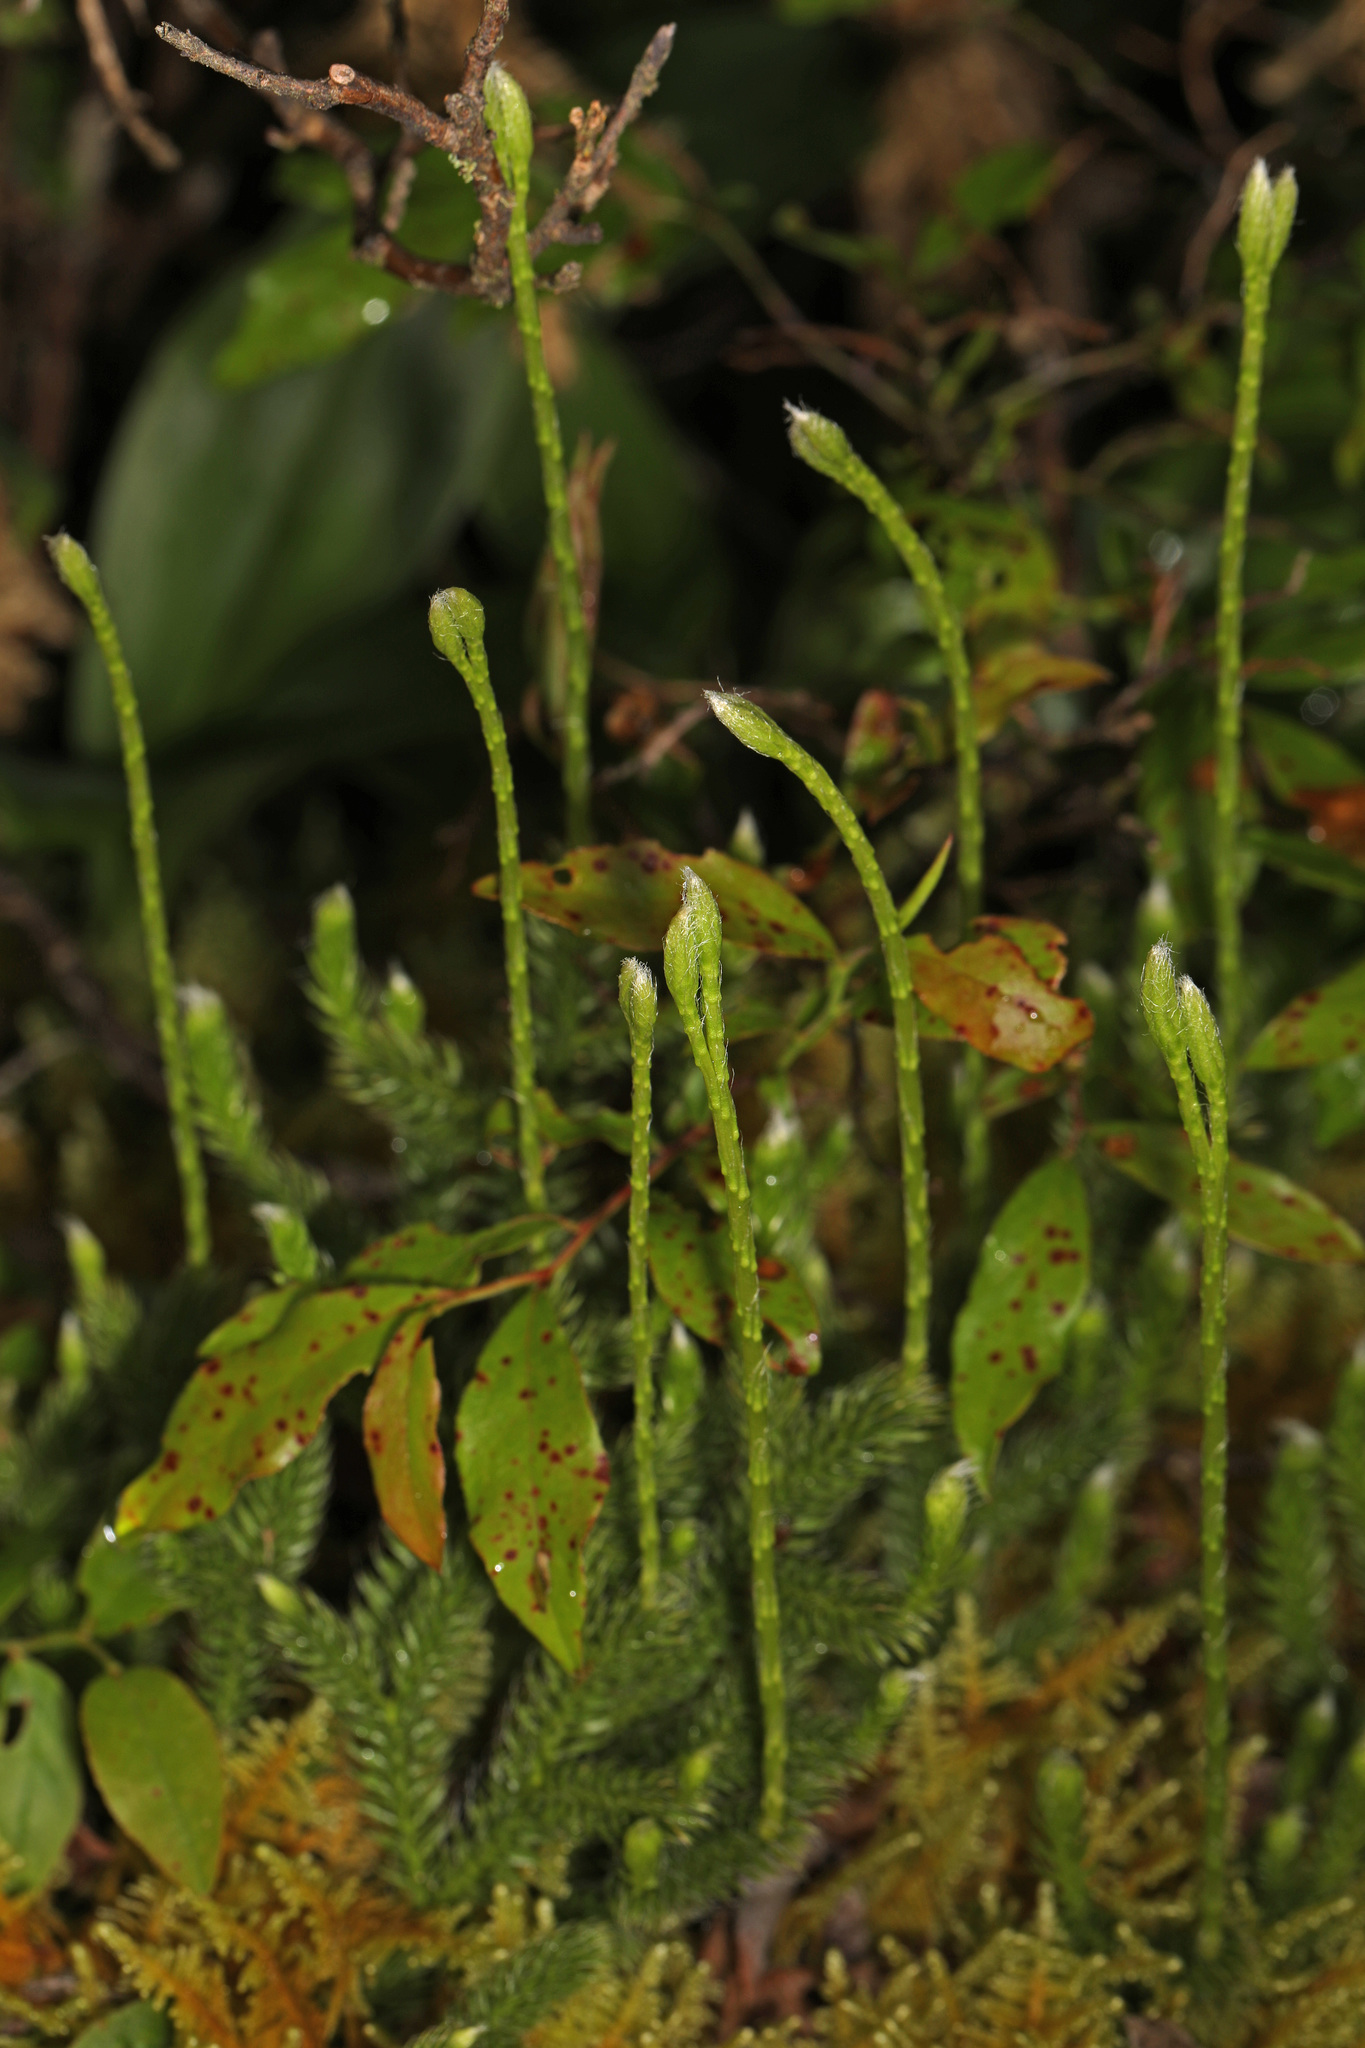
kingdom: Plantae
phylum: Tracheophyta
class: Lycopodiopsida
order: Lycopodiales
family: Lycopodiaceae
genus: Lycopodium
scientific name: Lycopodium clavatum
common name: Stag's-horn clubmoss
